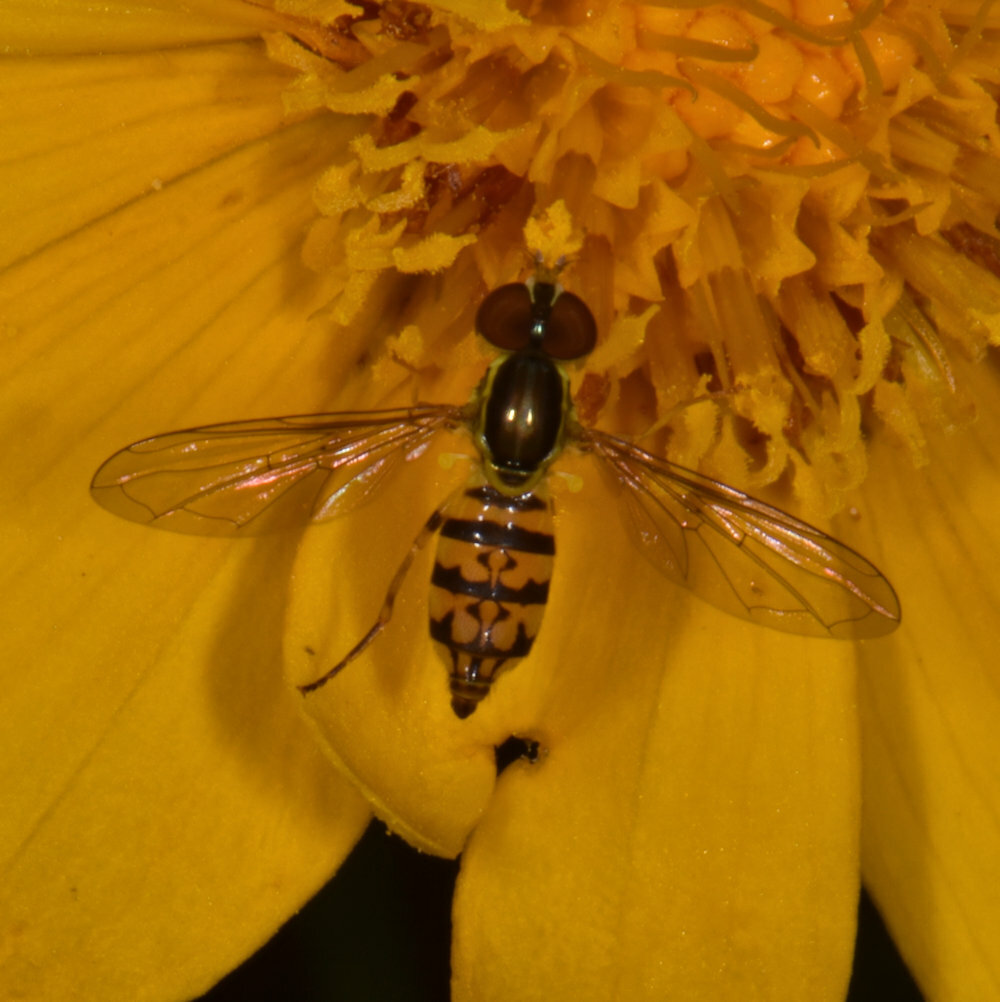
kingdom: Animalia
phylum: Arthropoda
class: Insecta
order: Diptera
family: Syrphidae
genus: Toxomerus
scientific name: Toxomerus geminatus
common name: Eastern calligrapher
